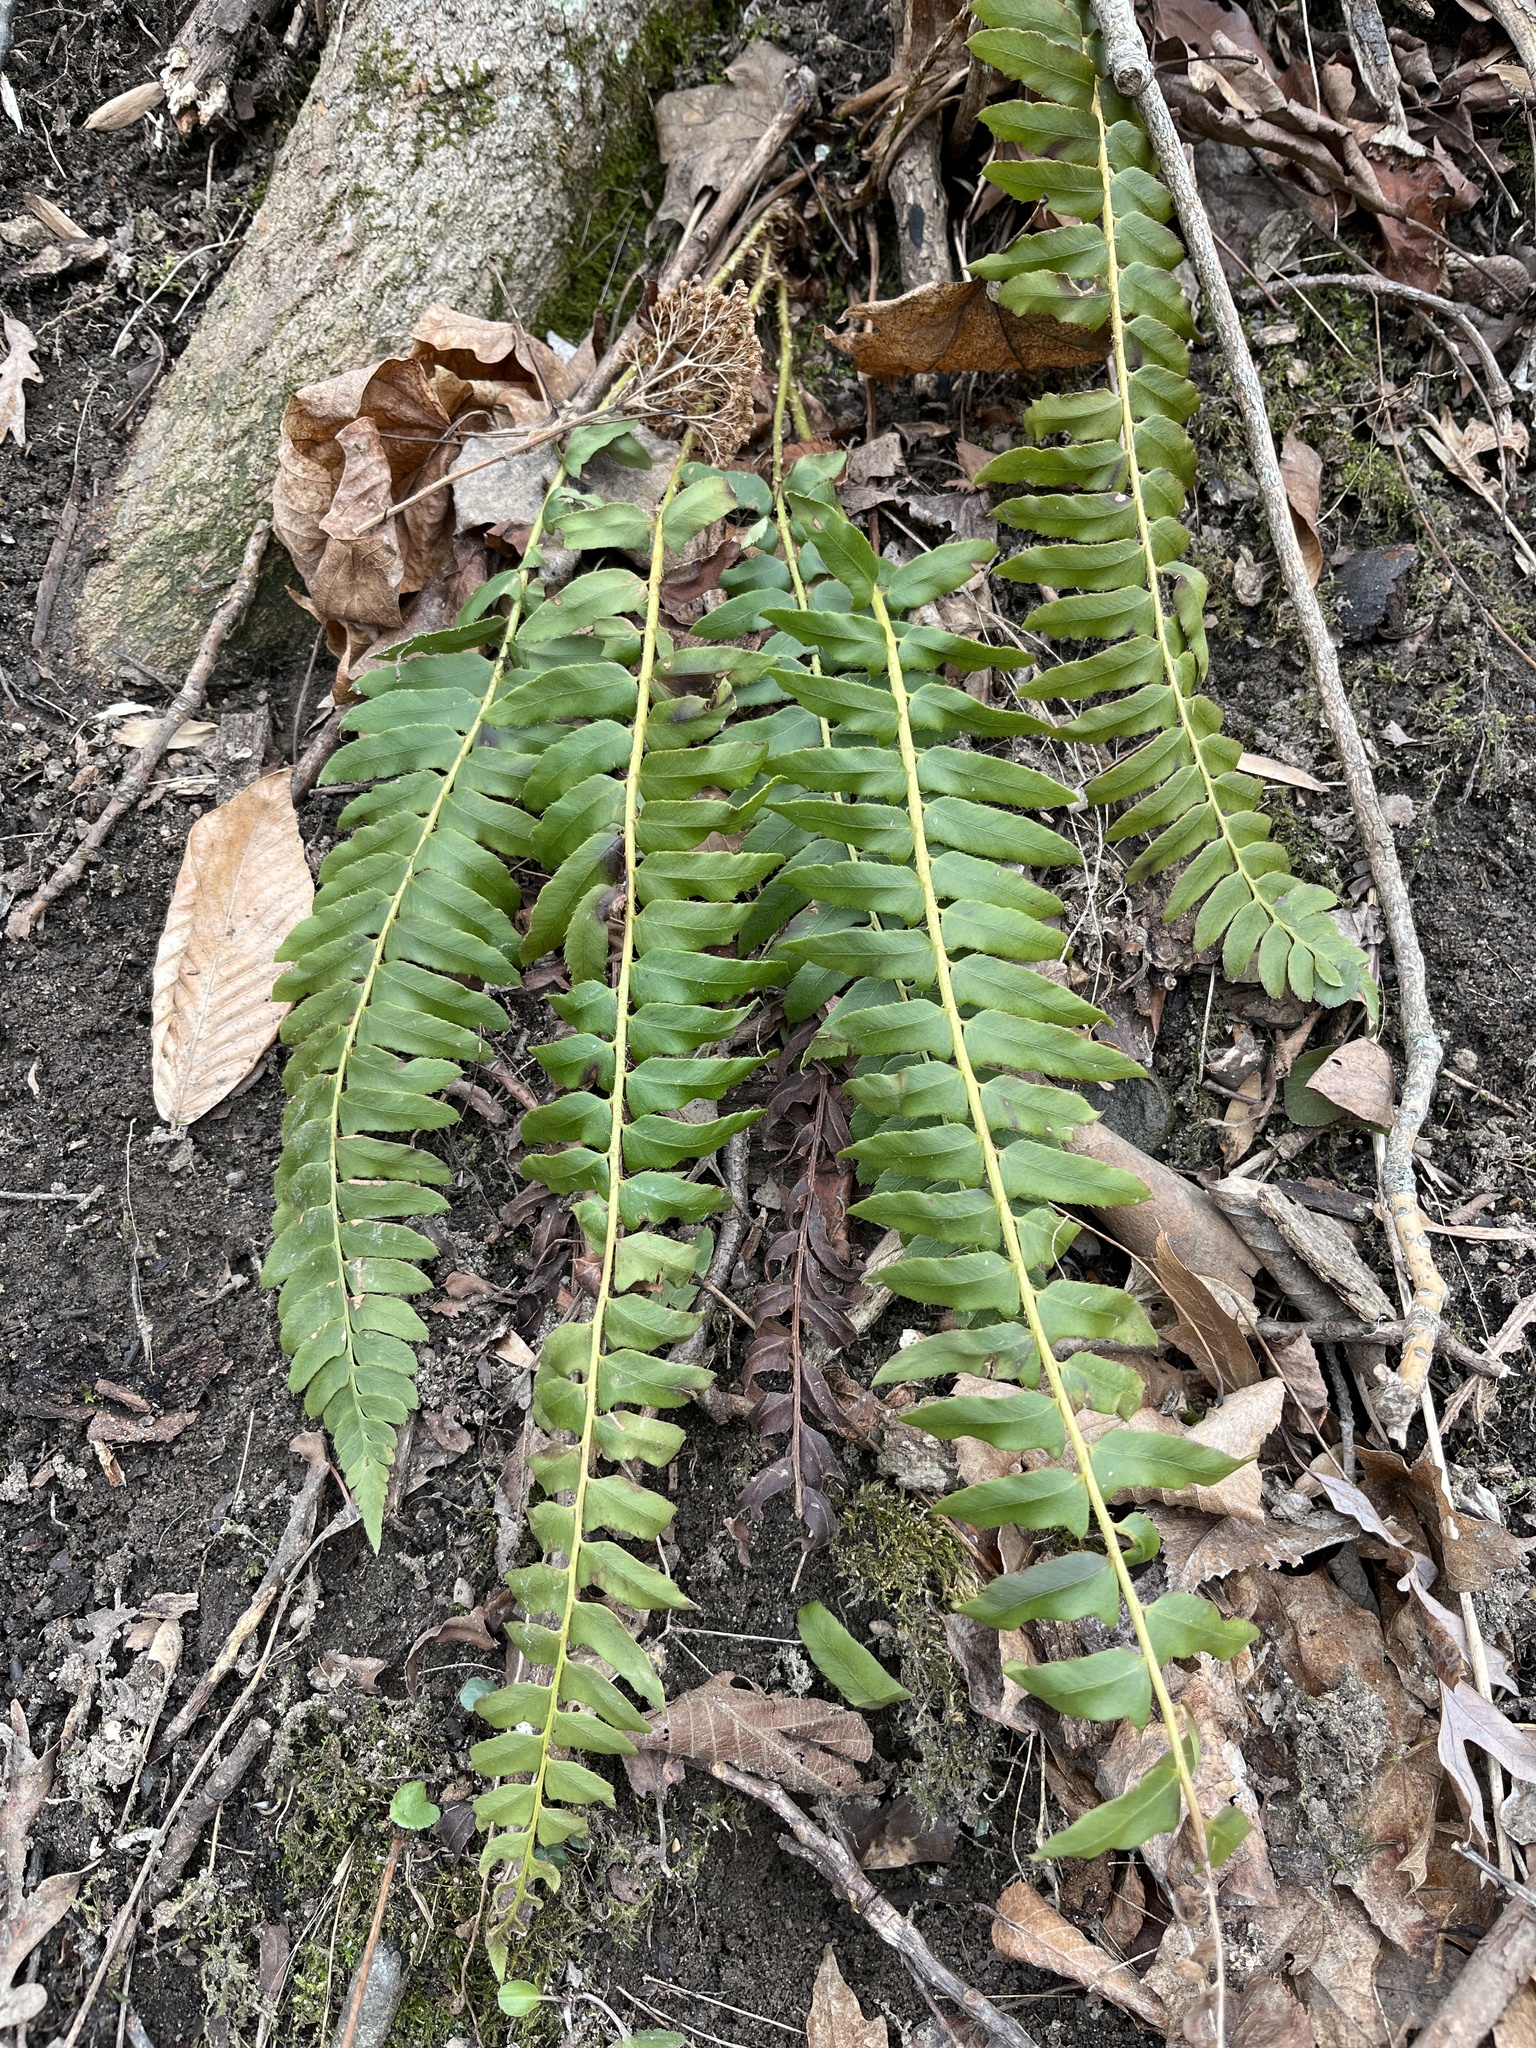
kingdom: Plantae
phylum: Tracheophyta
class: Polypodiopsida
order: Polypodiales
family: Dryopteridaceae
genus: Polystichum
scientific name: Polystichum acrostichoides
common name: Christmas fern
